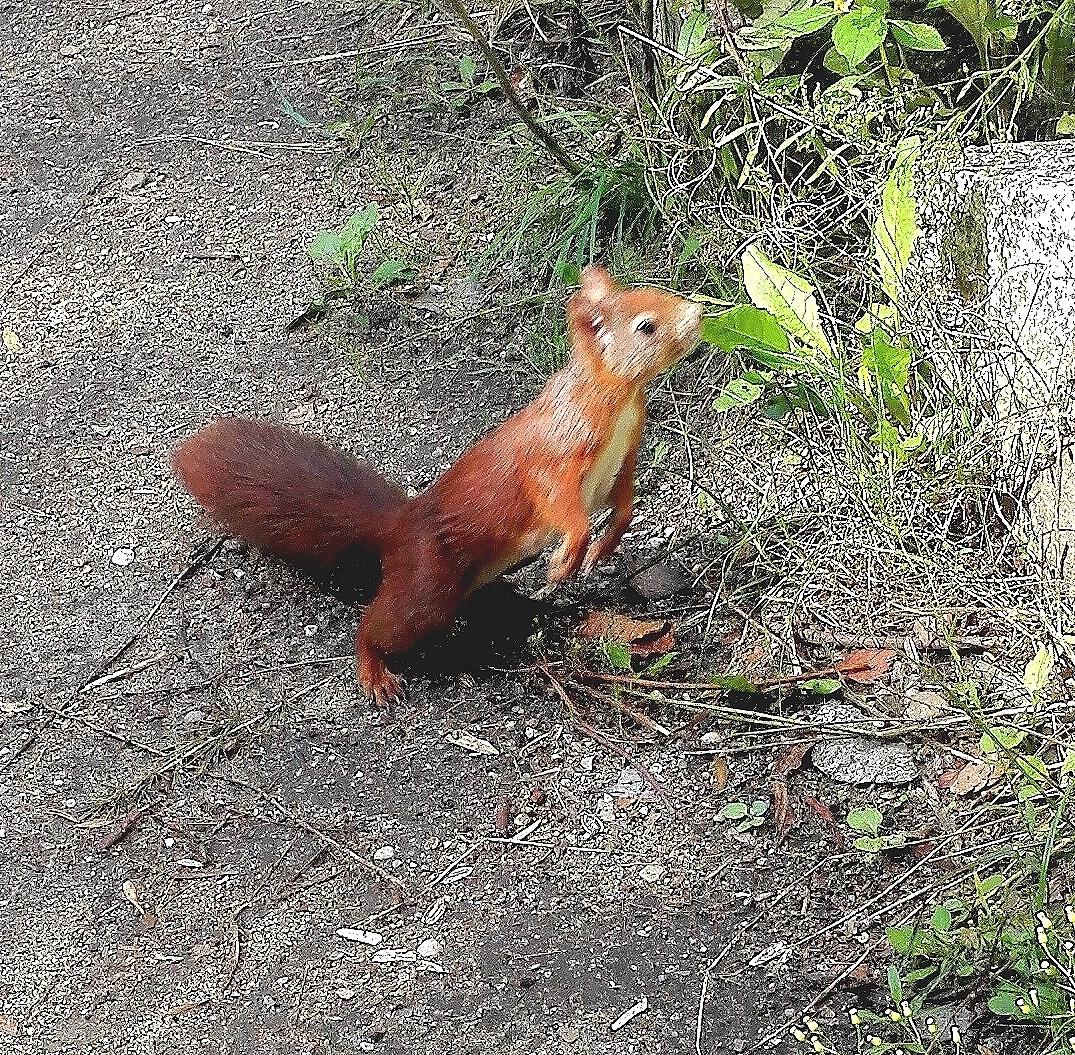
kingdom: Animalia
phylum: Chordata
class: Mammalia
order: Rodentia
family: Sciuridae
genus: Sciurus
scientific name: Sciurus vulgaris
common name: Eurasian red squirrel
